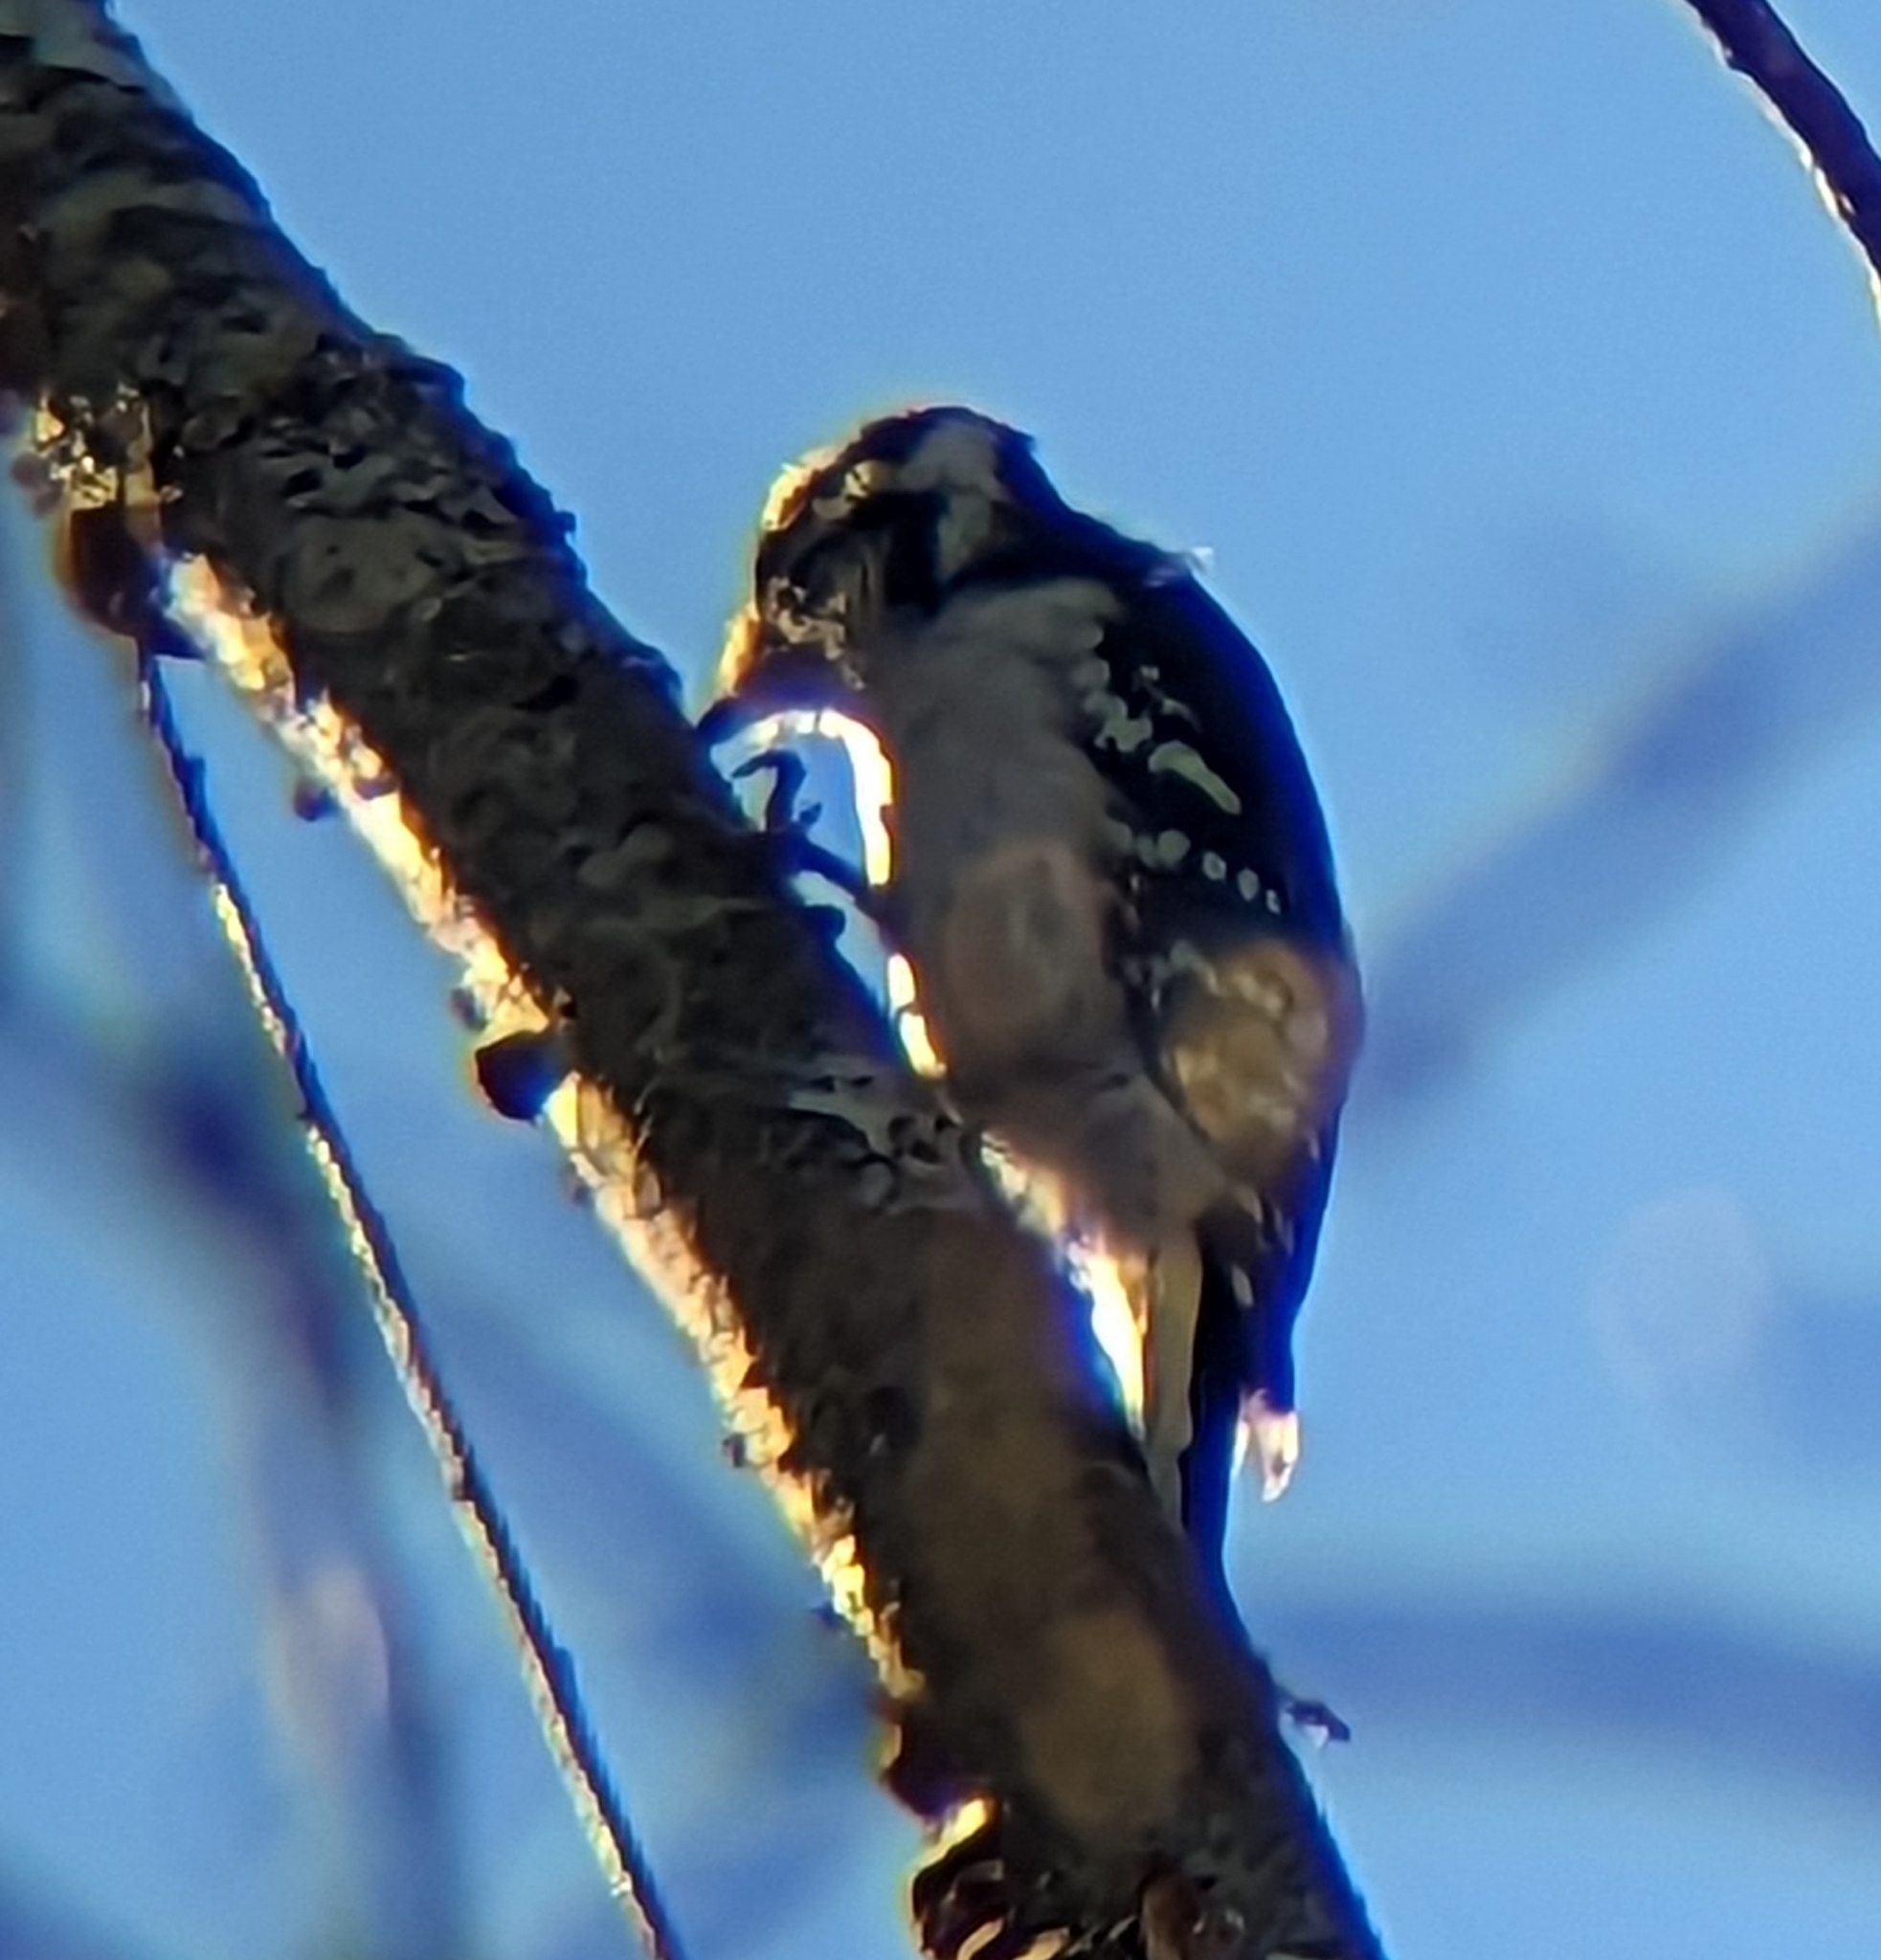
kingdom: Animalia
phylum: Chordata
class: Aves
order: Piciformes
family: Picidae
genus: Dryobates
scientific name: Dryobates pubescens
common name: Downy woodpecker
